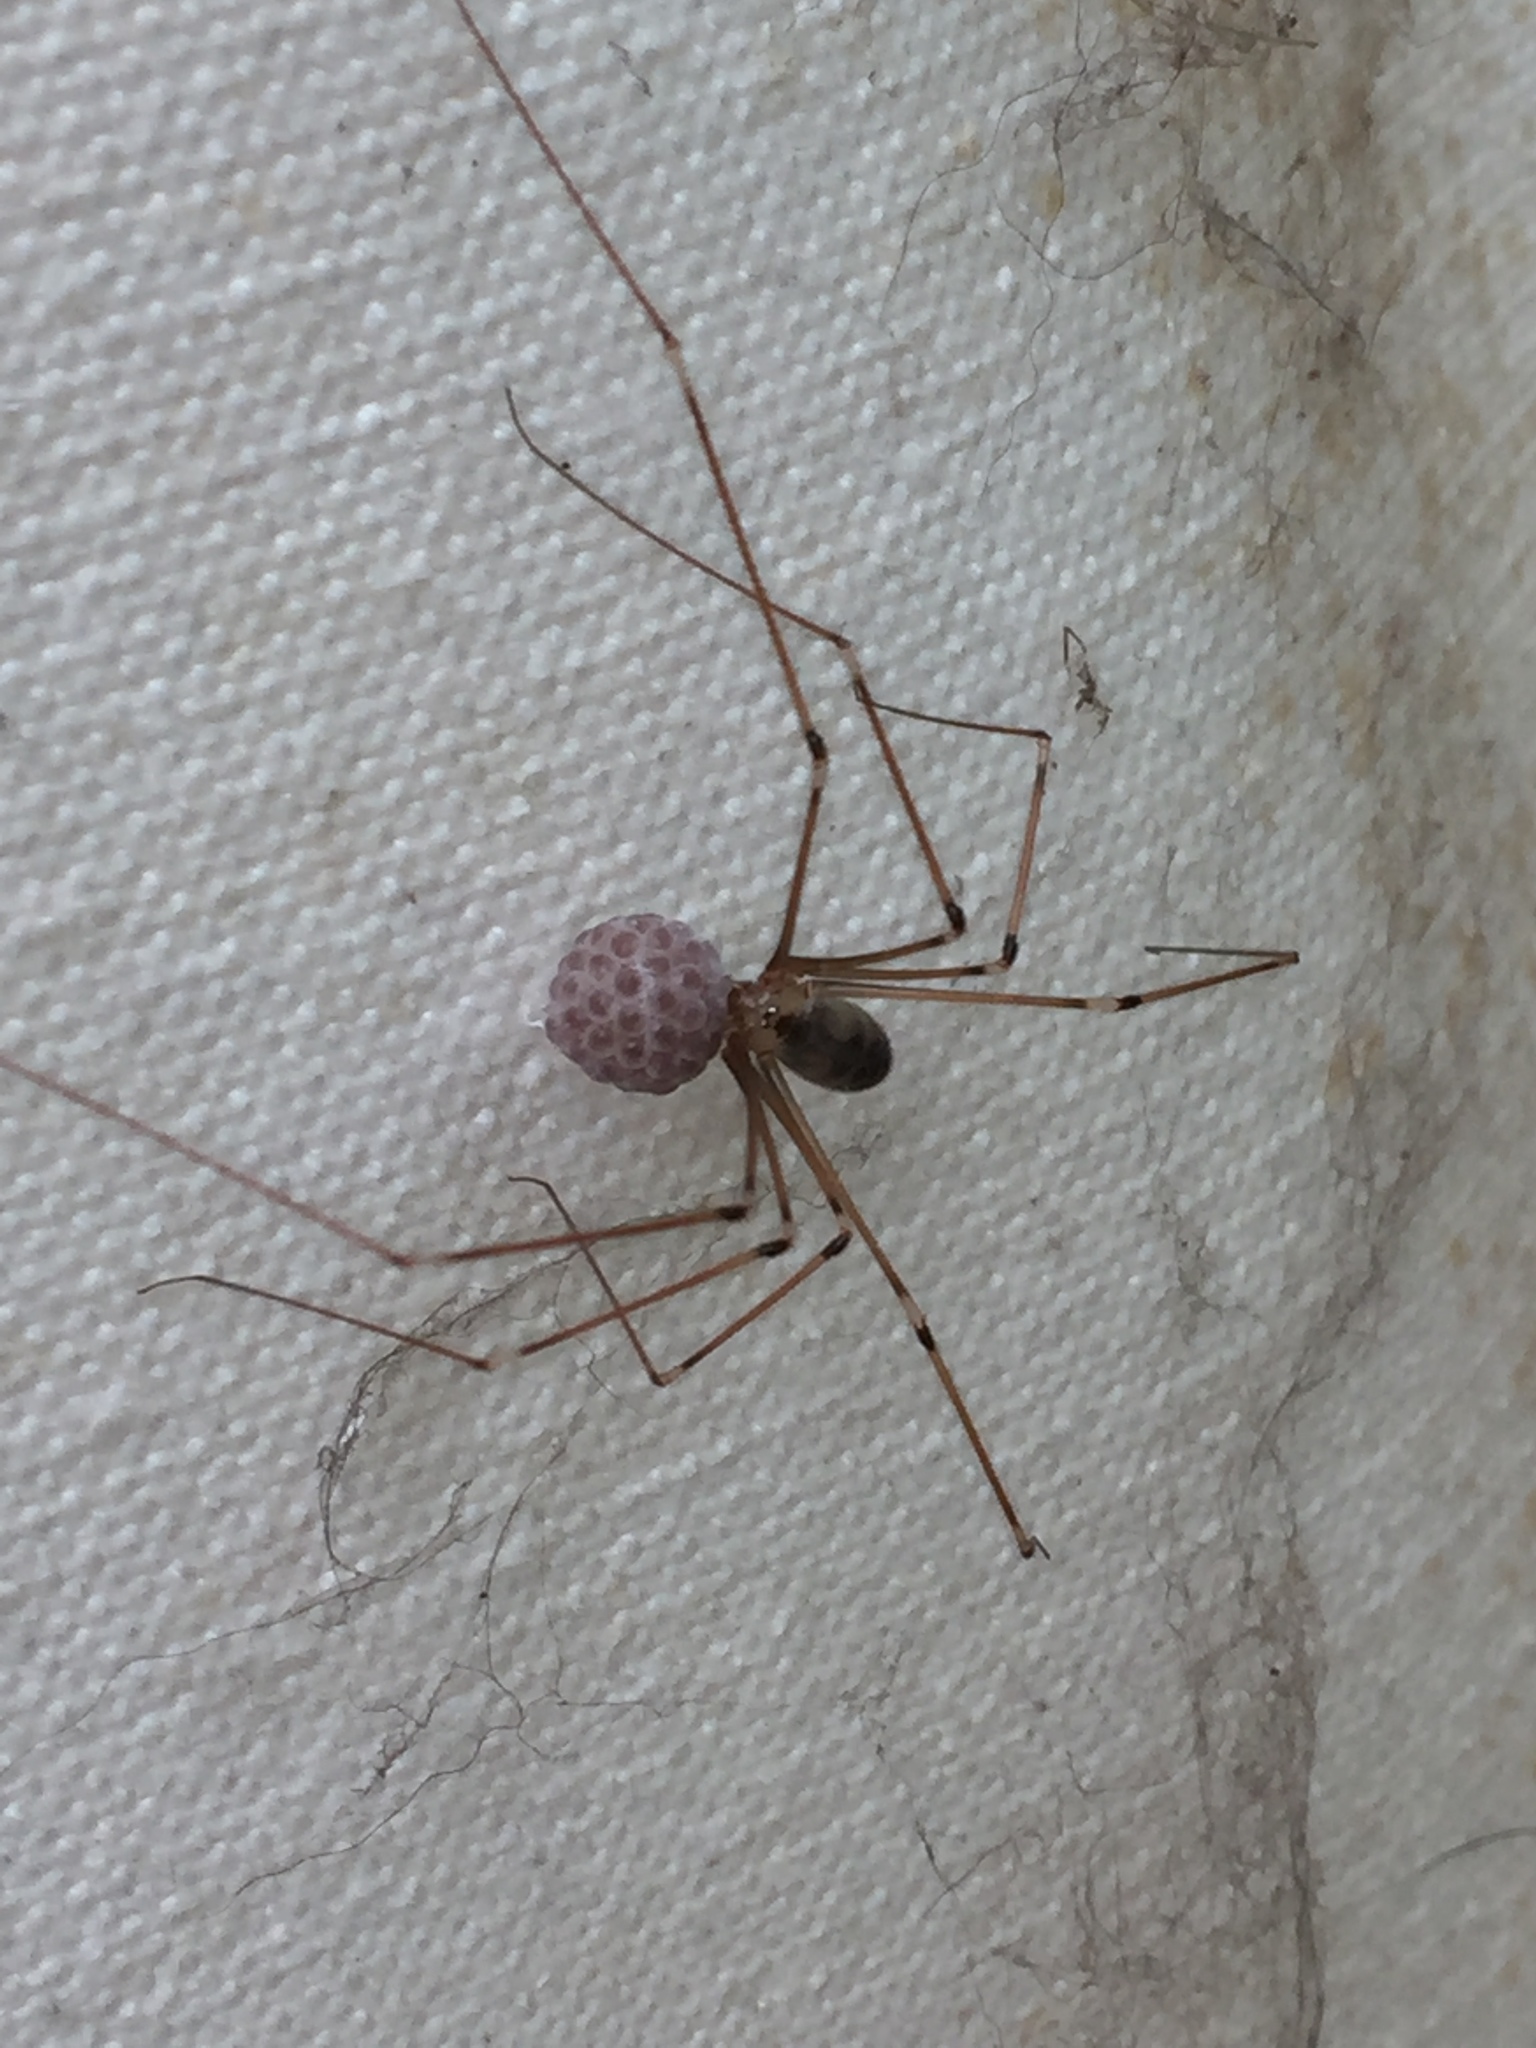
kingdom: Animalia
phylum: Arthropoda
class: Arachnida
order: Araneae
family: Pholcidae
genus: Pholcus
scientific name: Pholcus phalangioides
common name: Longbodied cellar spider
